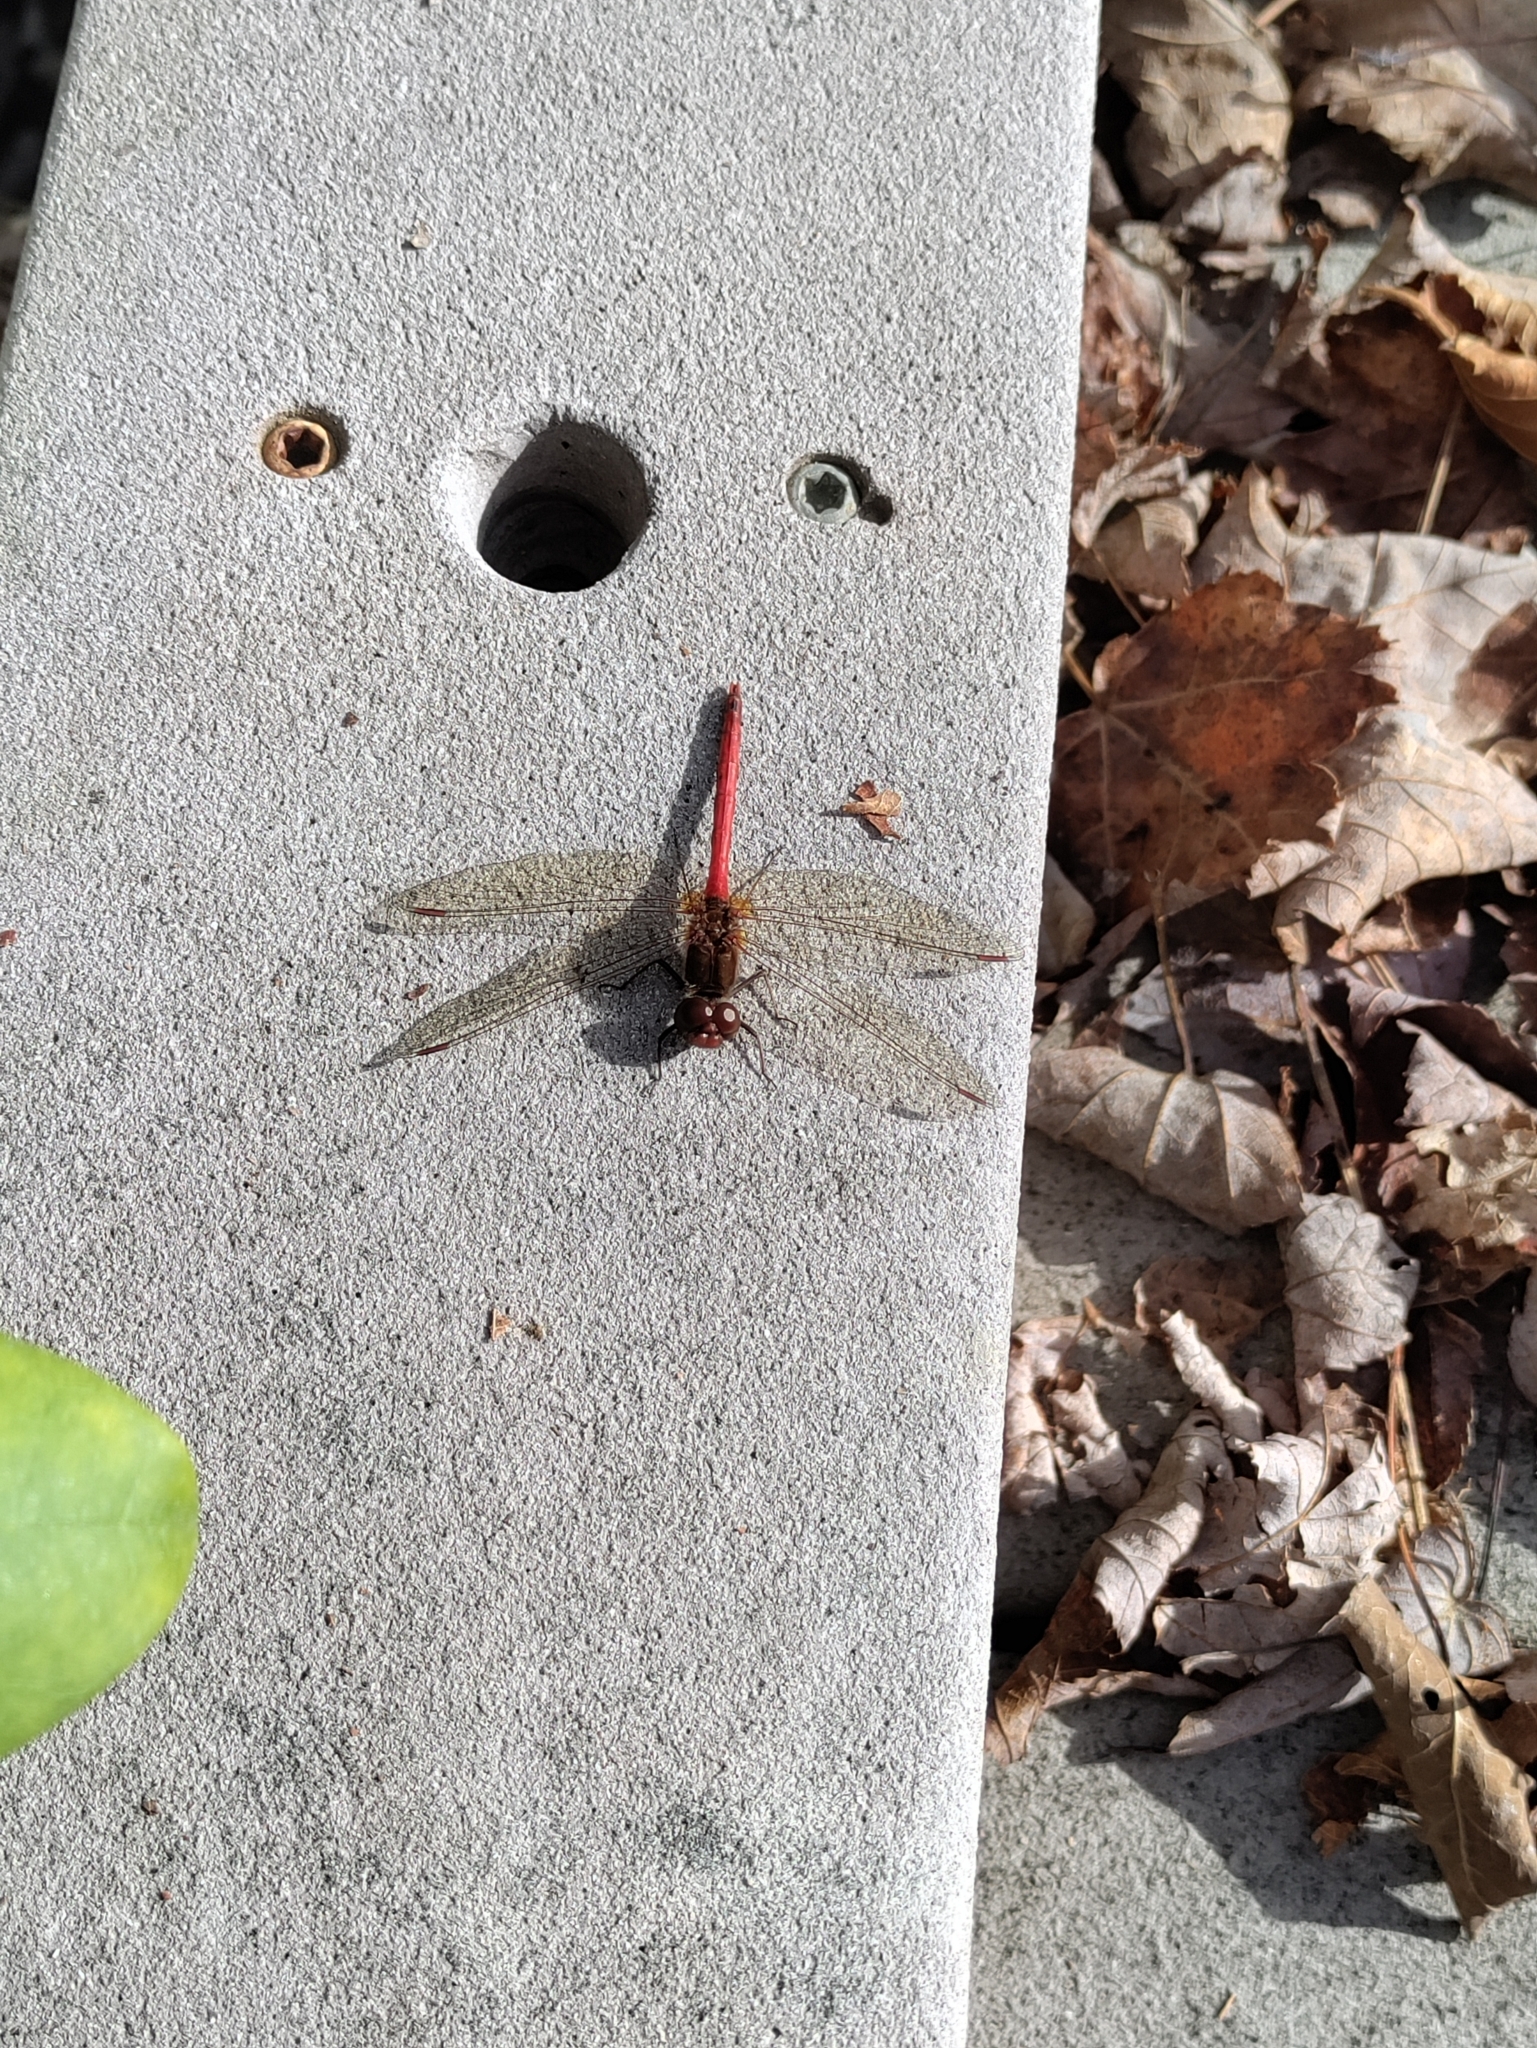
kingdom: Animalia
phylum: Arthropoda
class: Insecta
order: Odonata
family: Libellulidae
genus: Sympetrum
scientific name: Sympetrum vicinum
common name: Autumn meadowhawk
